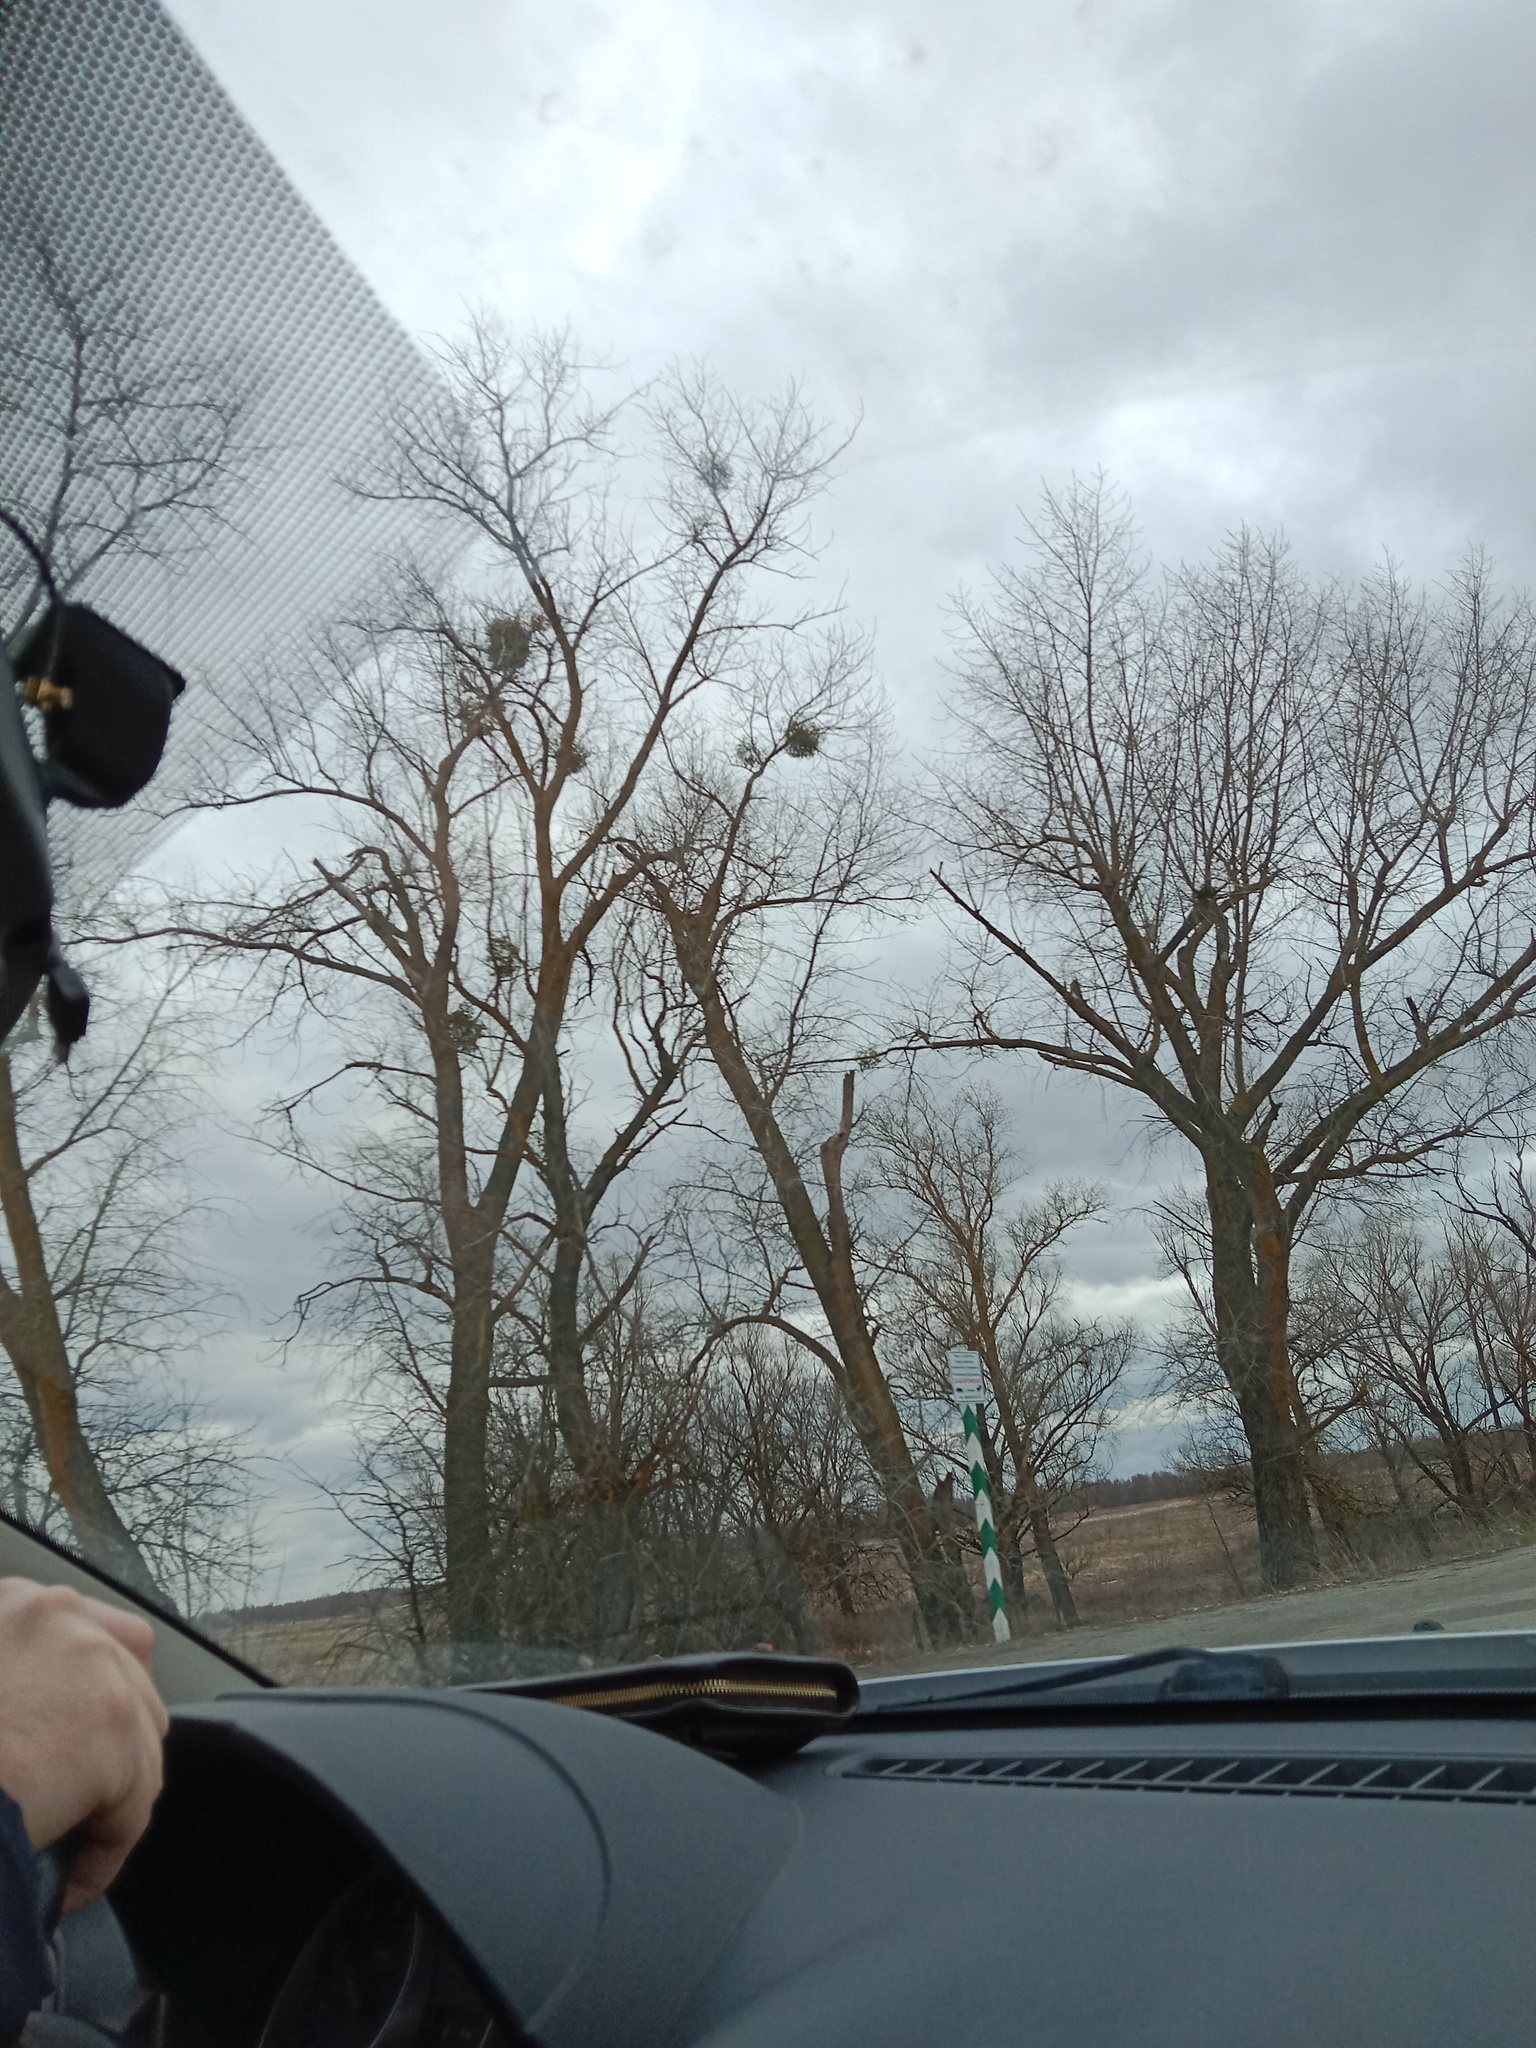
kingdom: Plantae
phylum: Tracheophyta
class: Magnoliopsida
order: Santalales
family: Viscaceae
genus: Viscum
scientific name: Viscum album
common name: Mistletoe
